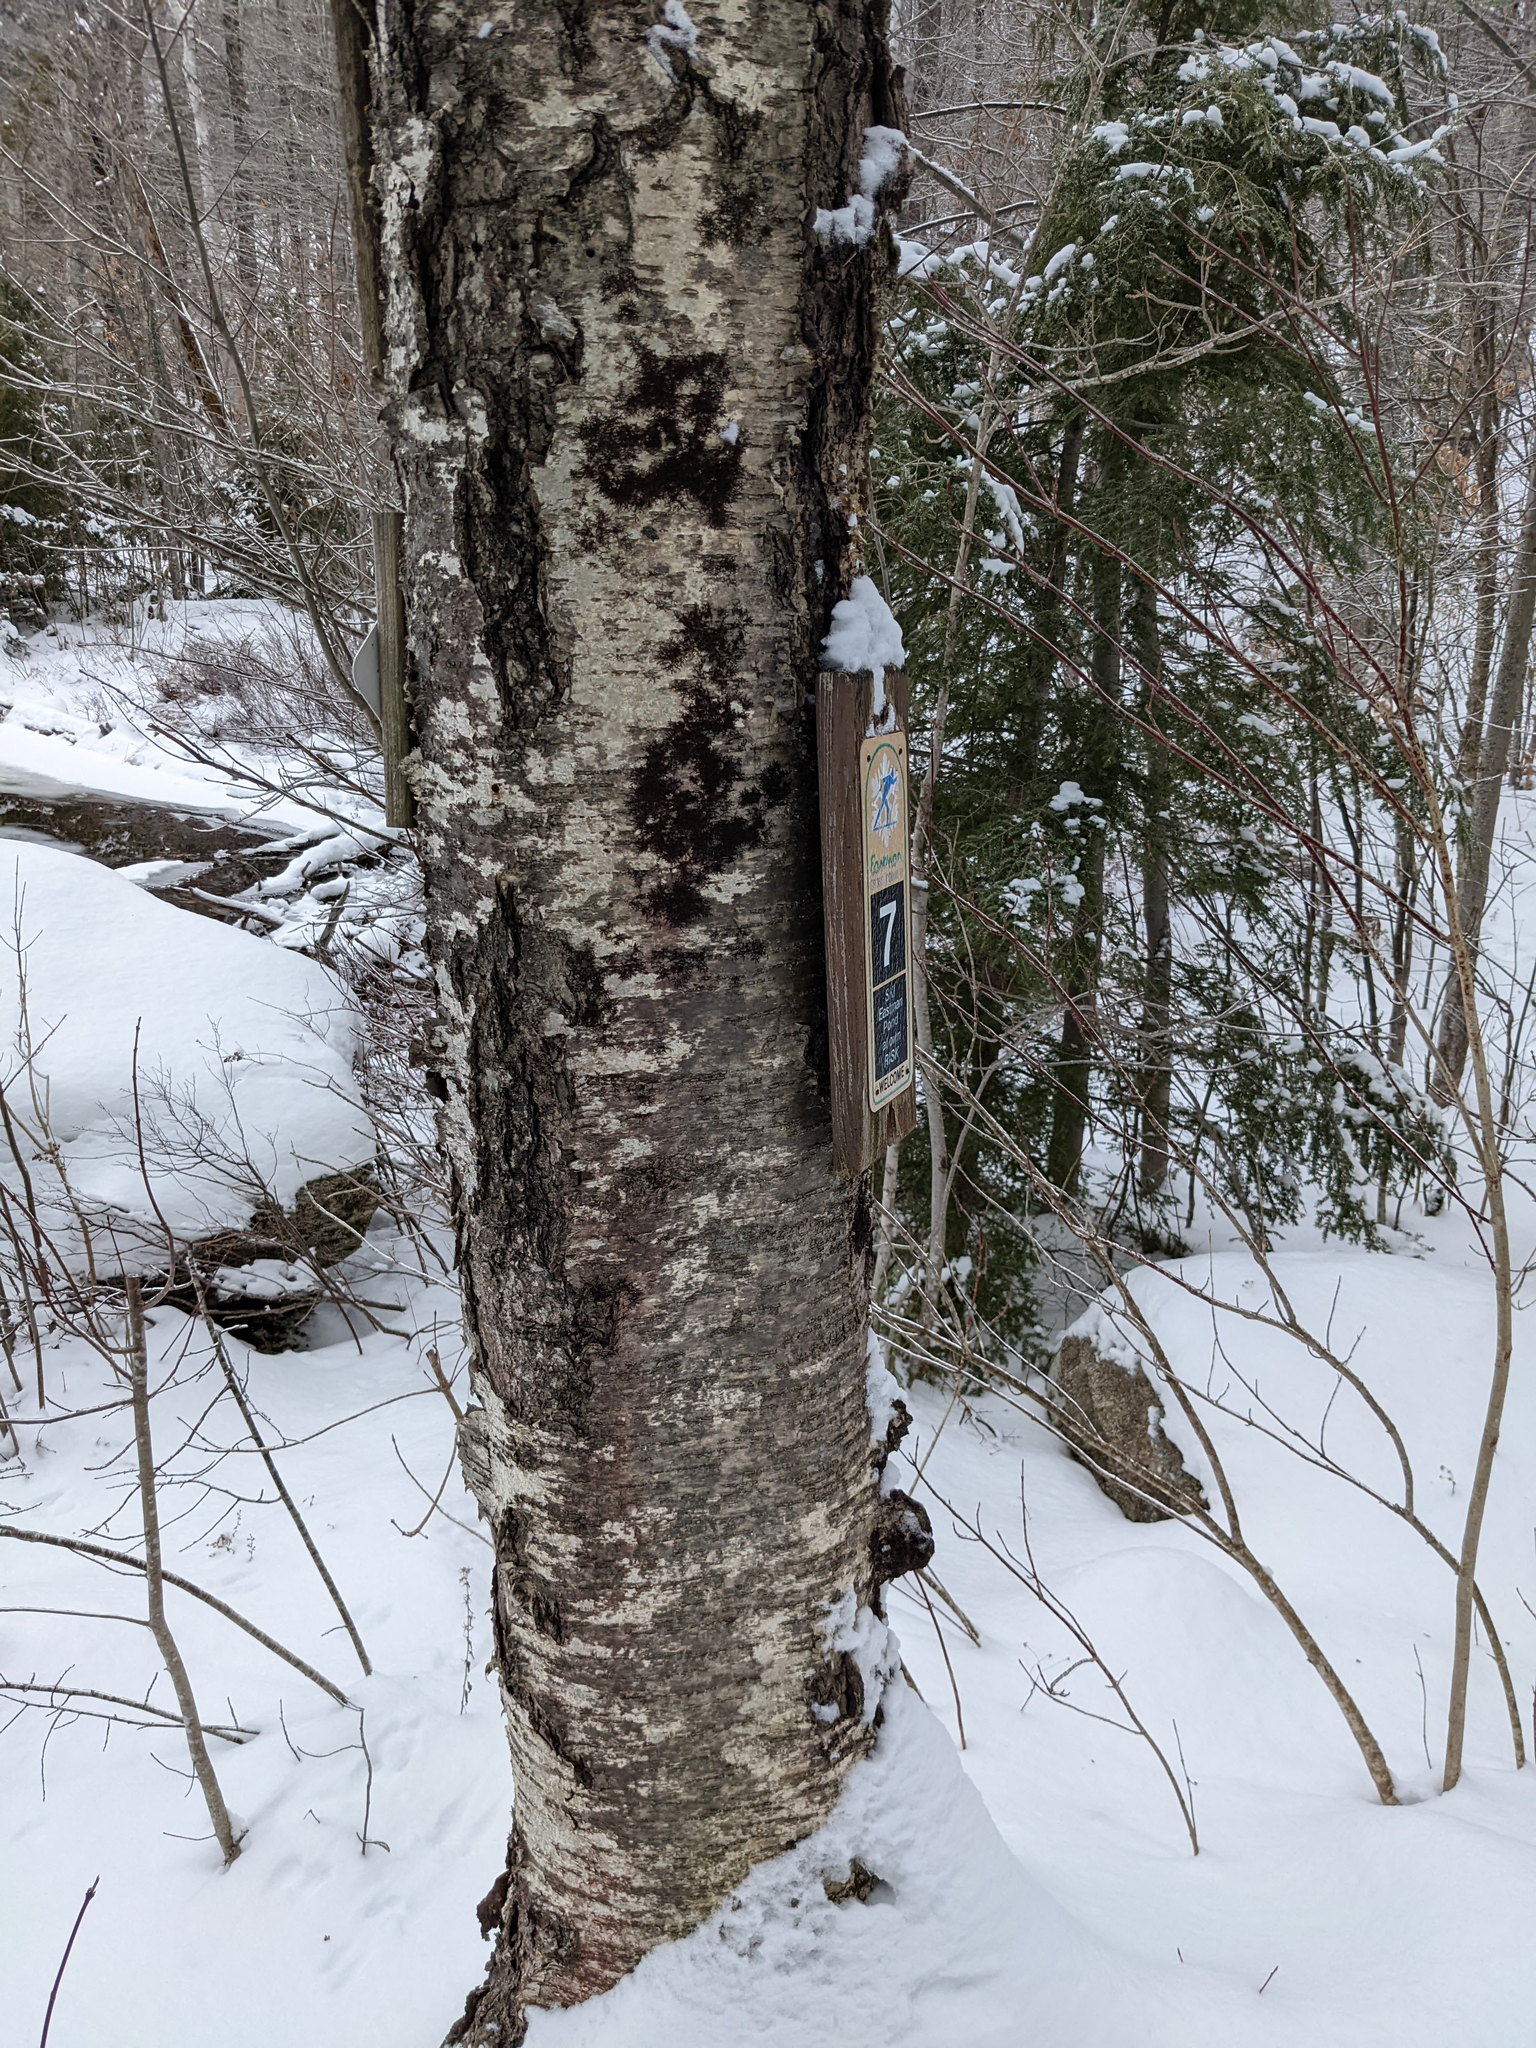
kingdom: Plantae
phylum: Tracheophyta
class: Magnoliopsida
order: Fagales
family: Betulaceae
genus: Betula
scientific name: Betula alleghaniensis
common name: Yellow birch
